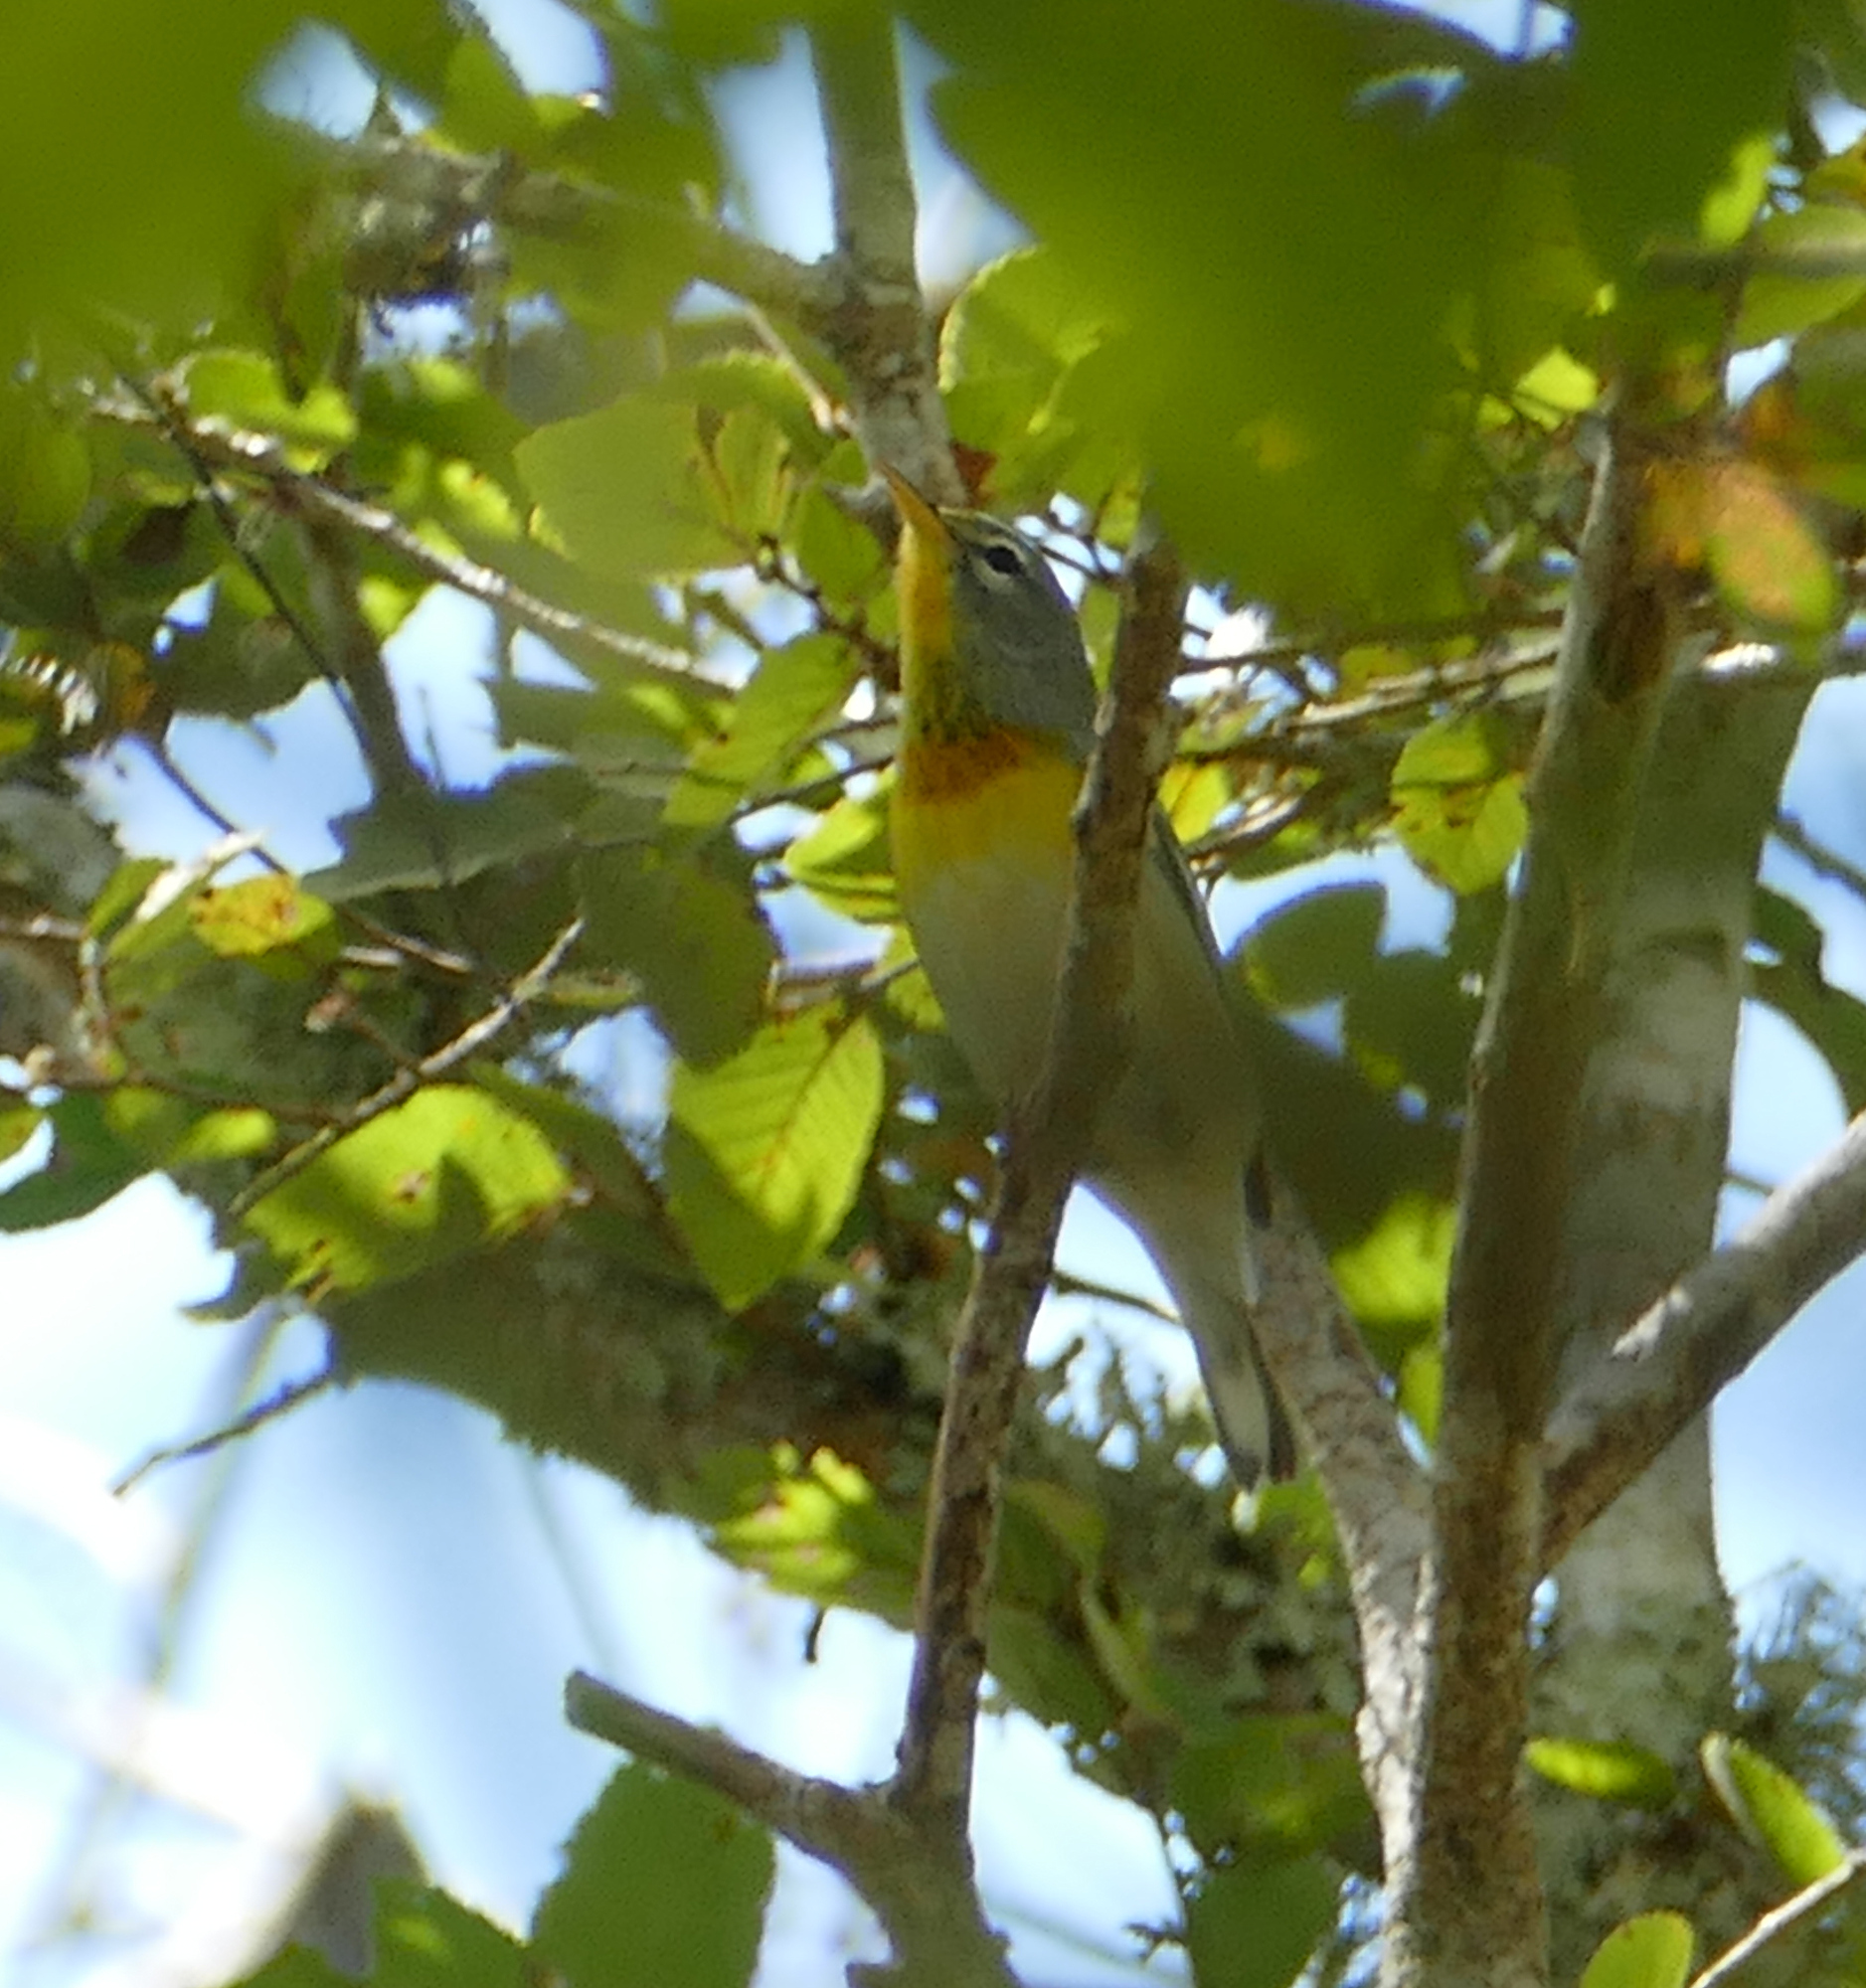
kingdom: Animalia
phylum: Chordata
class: Aves
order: Passeriformes
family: Parulidae
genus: Setophaga
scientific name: Setophaga americana
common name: Northern parula
